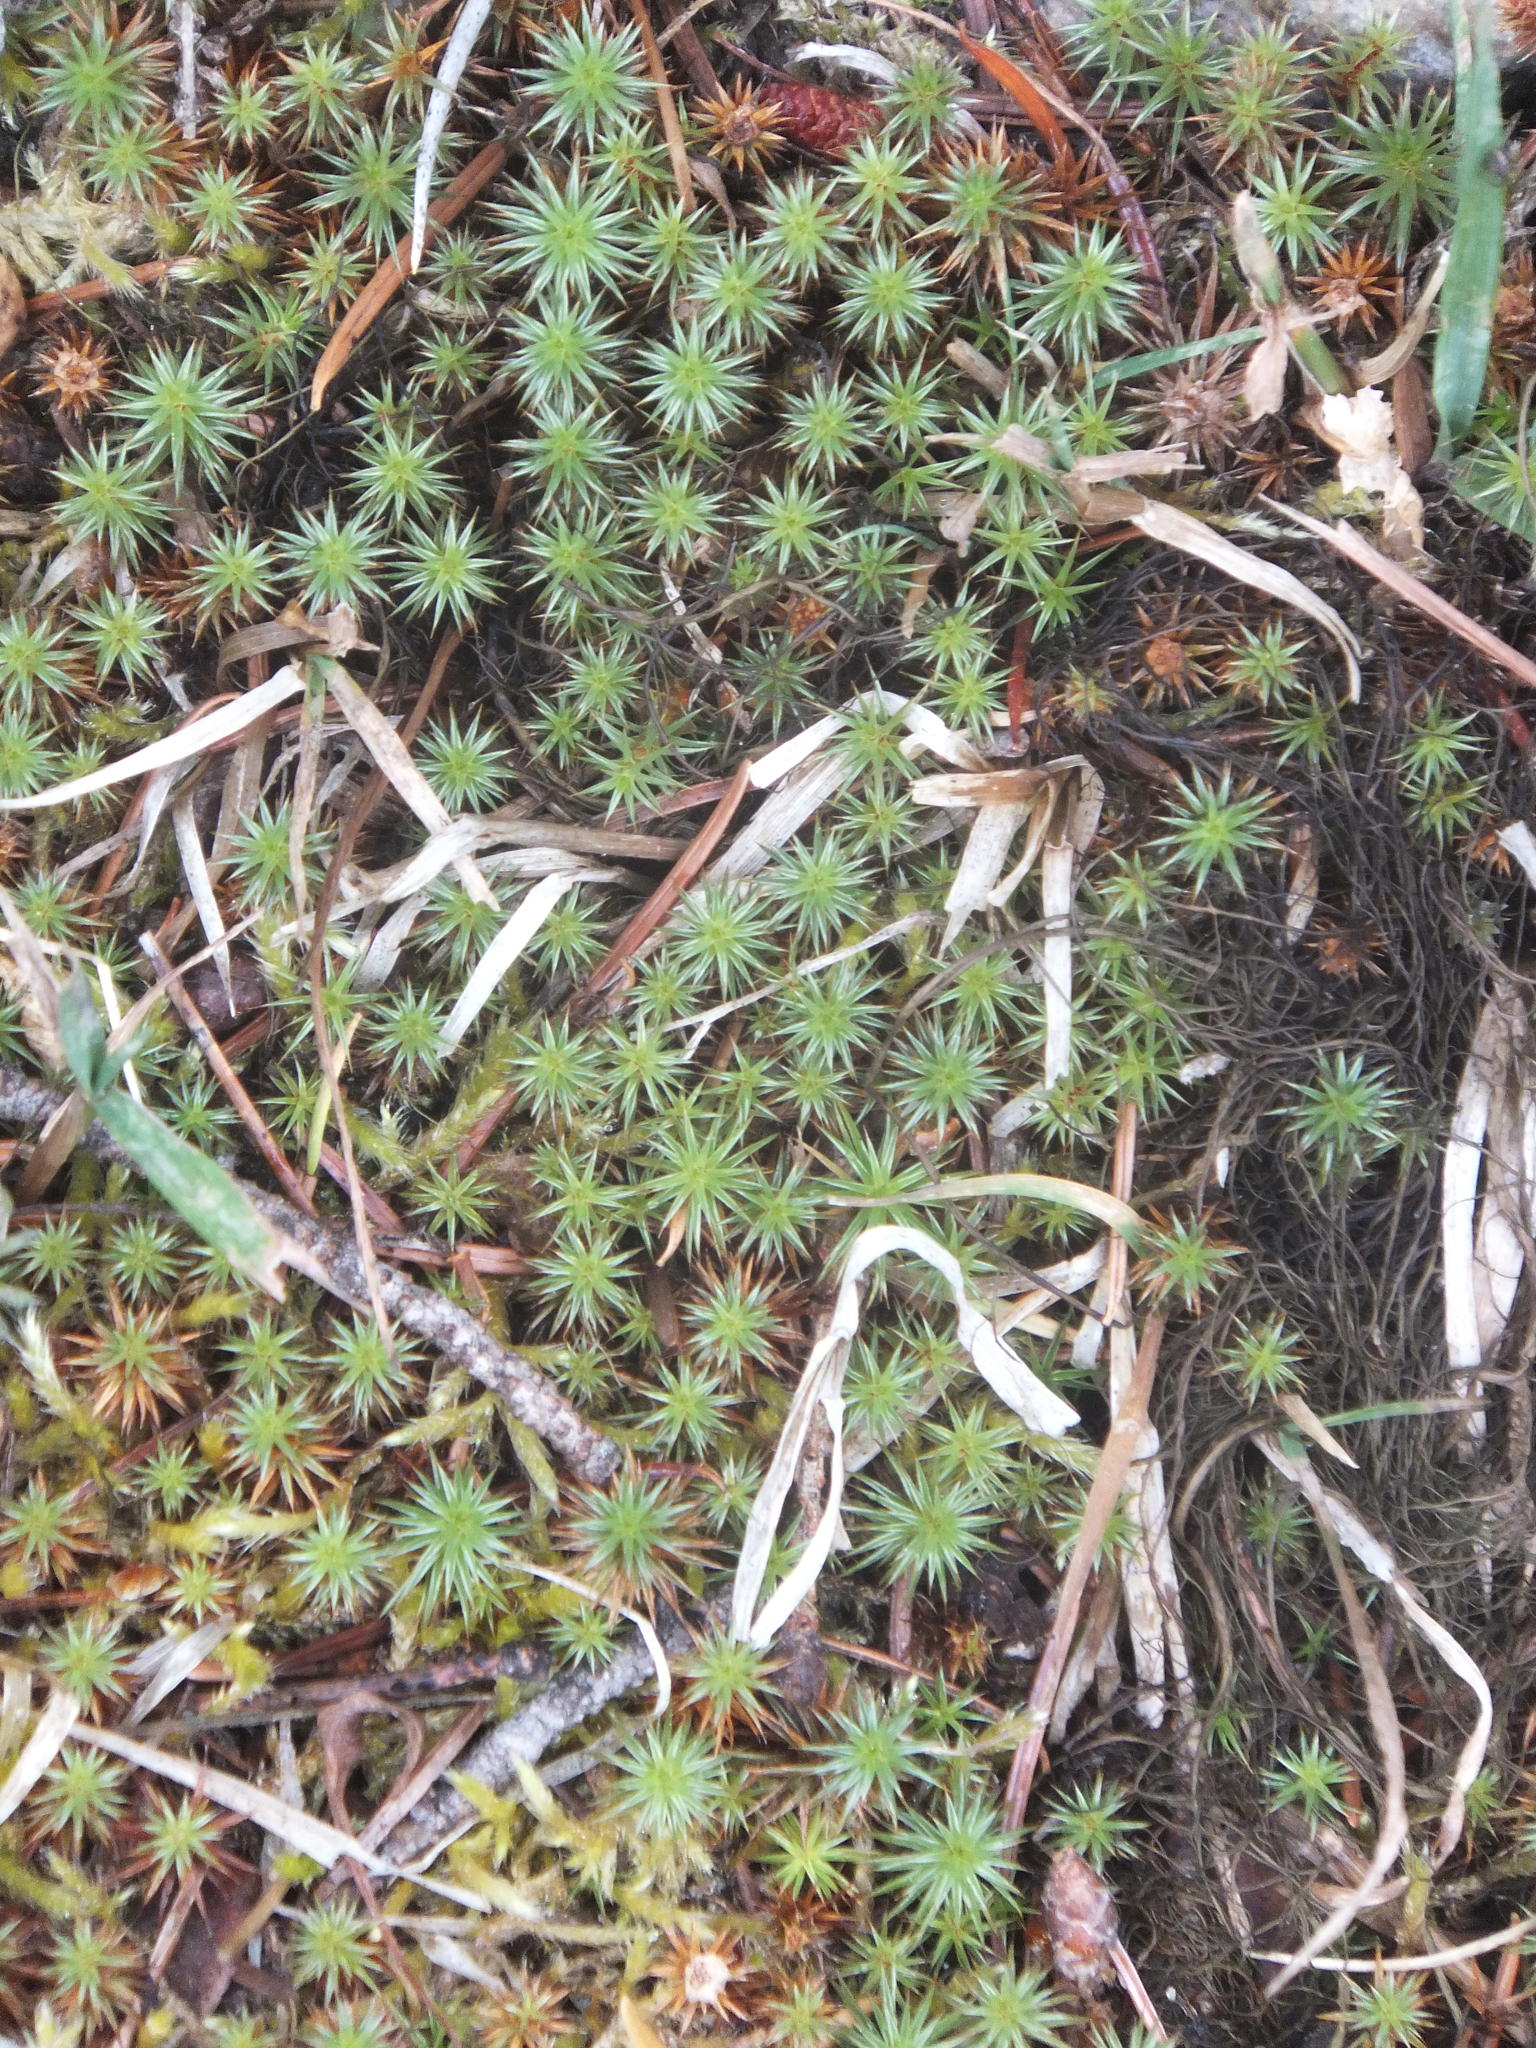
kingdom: Plantae
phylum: Bryophyta
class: Polytrichopsida
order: Polytrichales
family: Polytrichaceae
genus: Polytrichum
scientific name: Polytrichum juniperinum
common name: Juniper haircap moss
